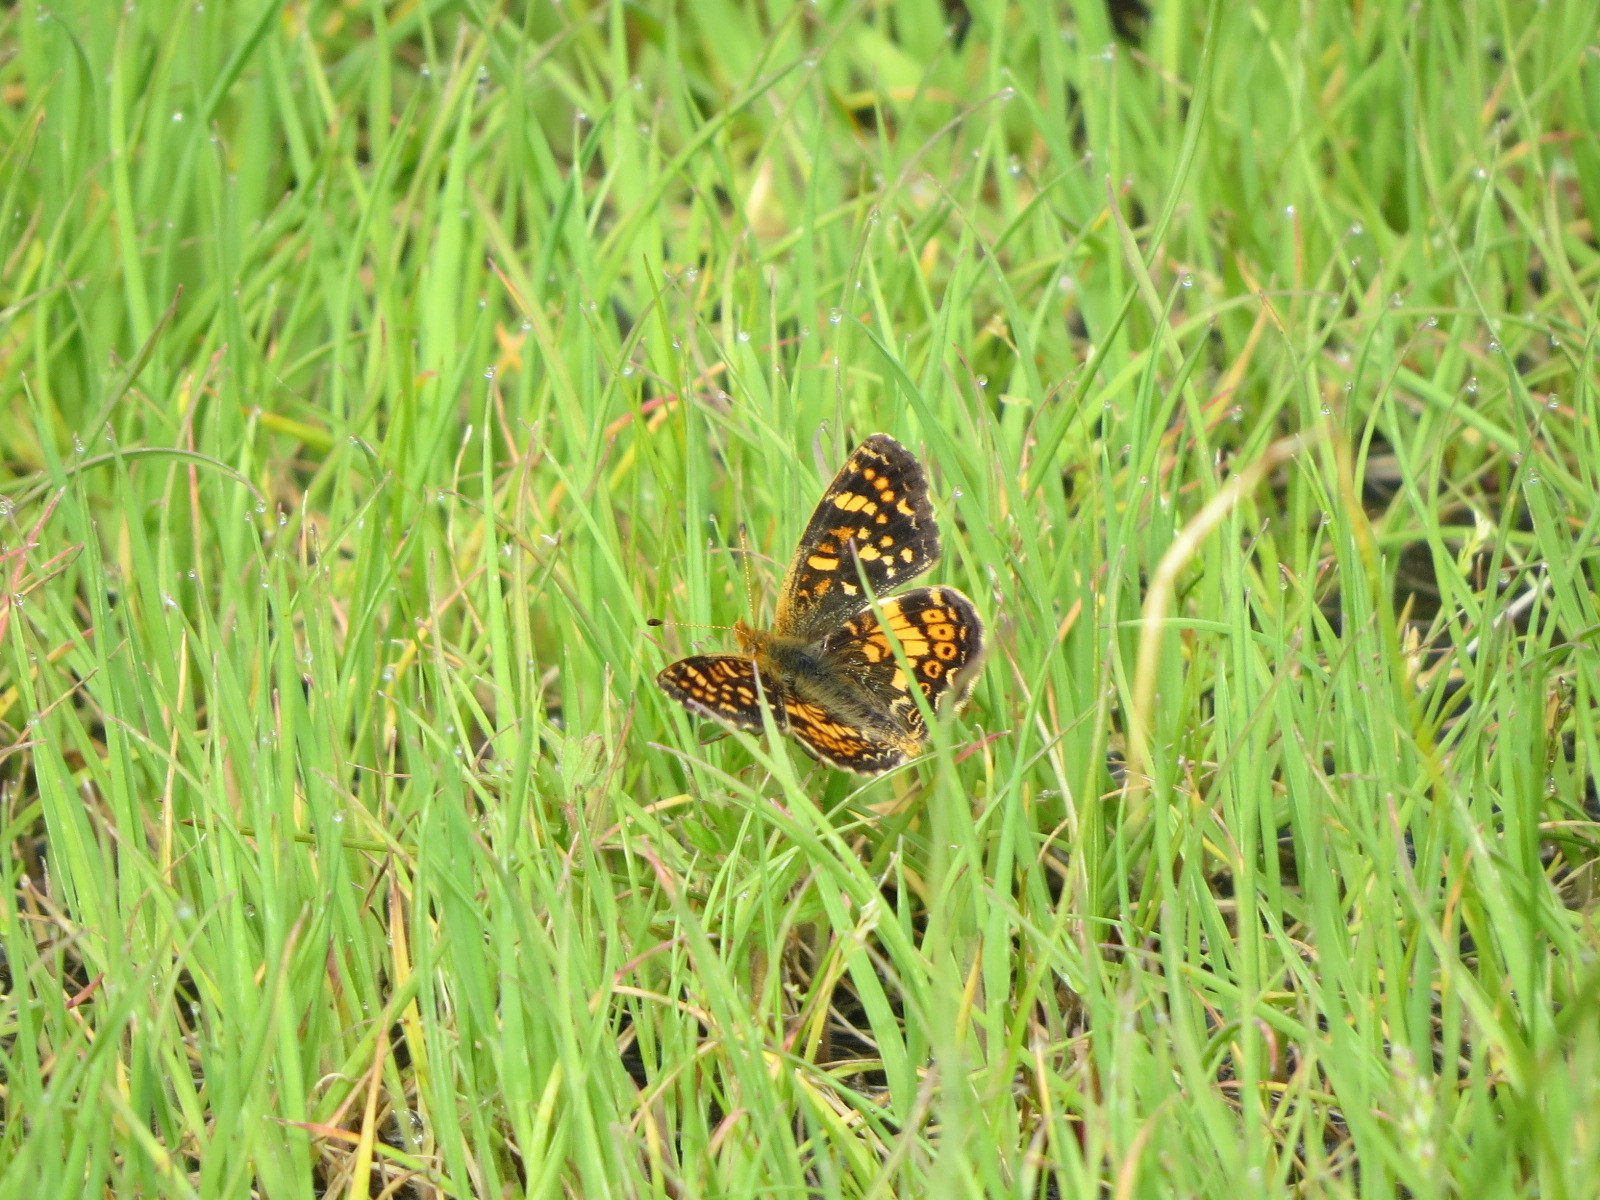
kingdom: Animalia
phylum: Arthropoda
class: Insecta
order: Lepidoptera
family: Nymphalidae
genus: Phyciodes
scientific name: Phyciodes tharos
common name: Pearl crescent
